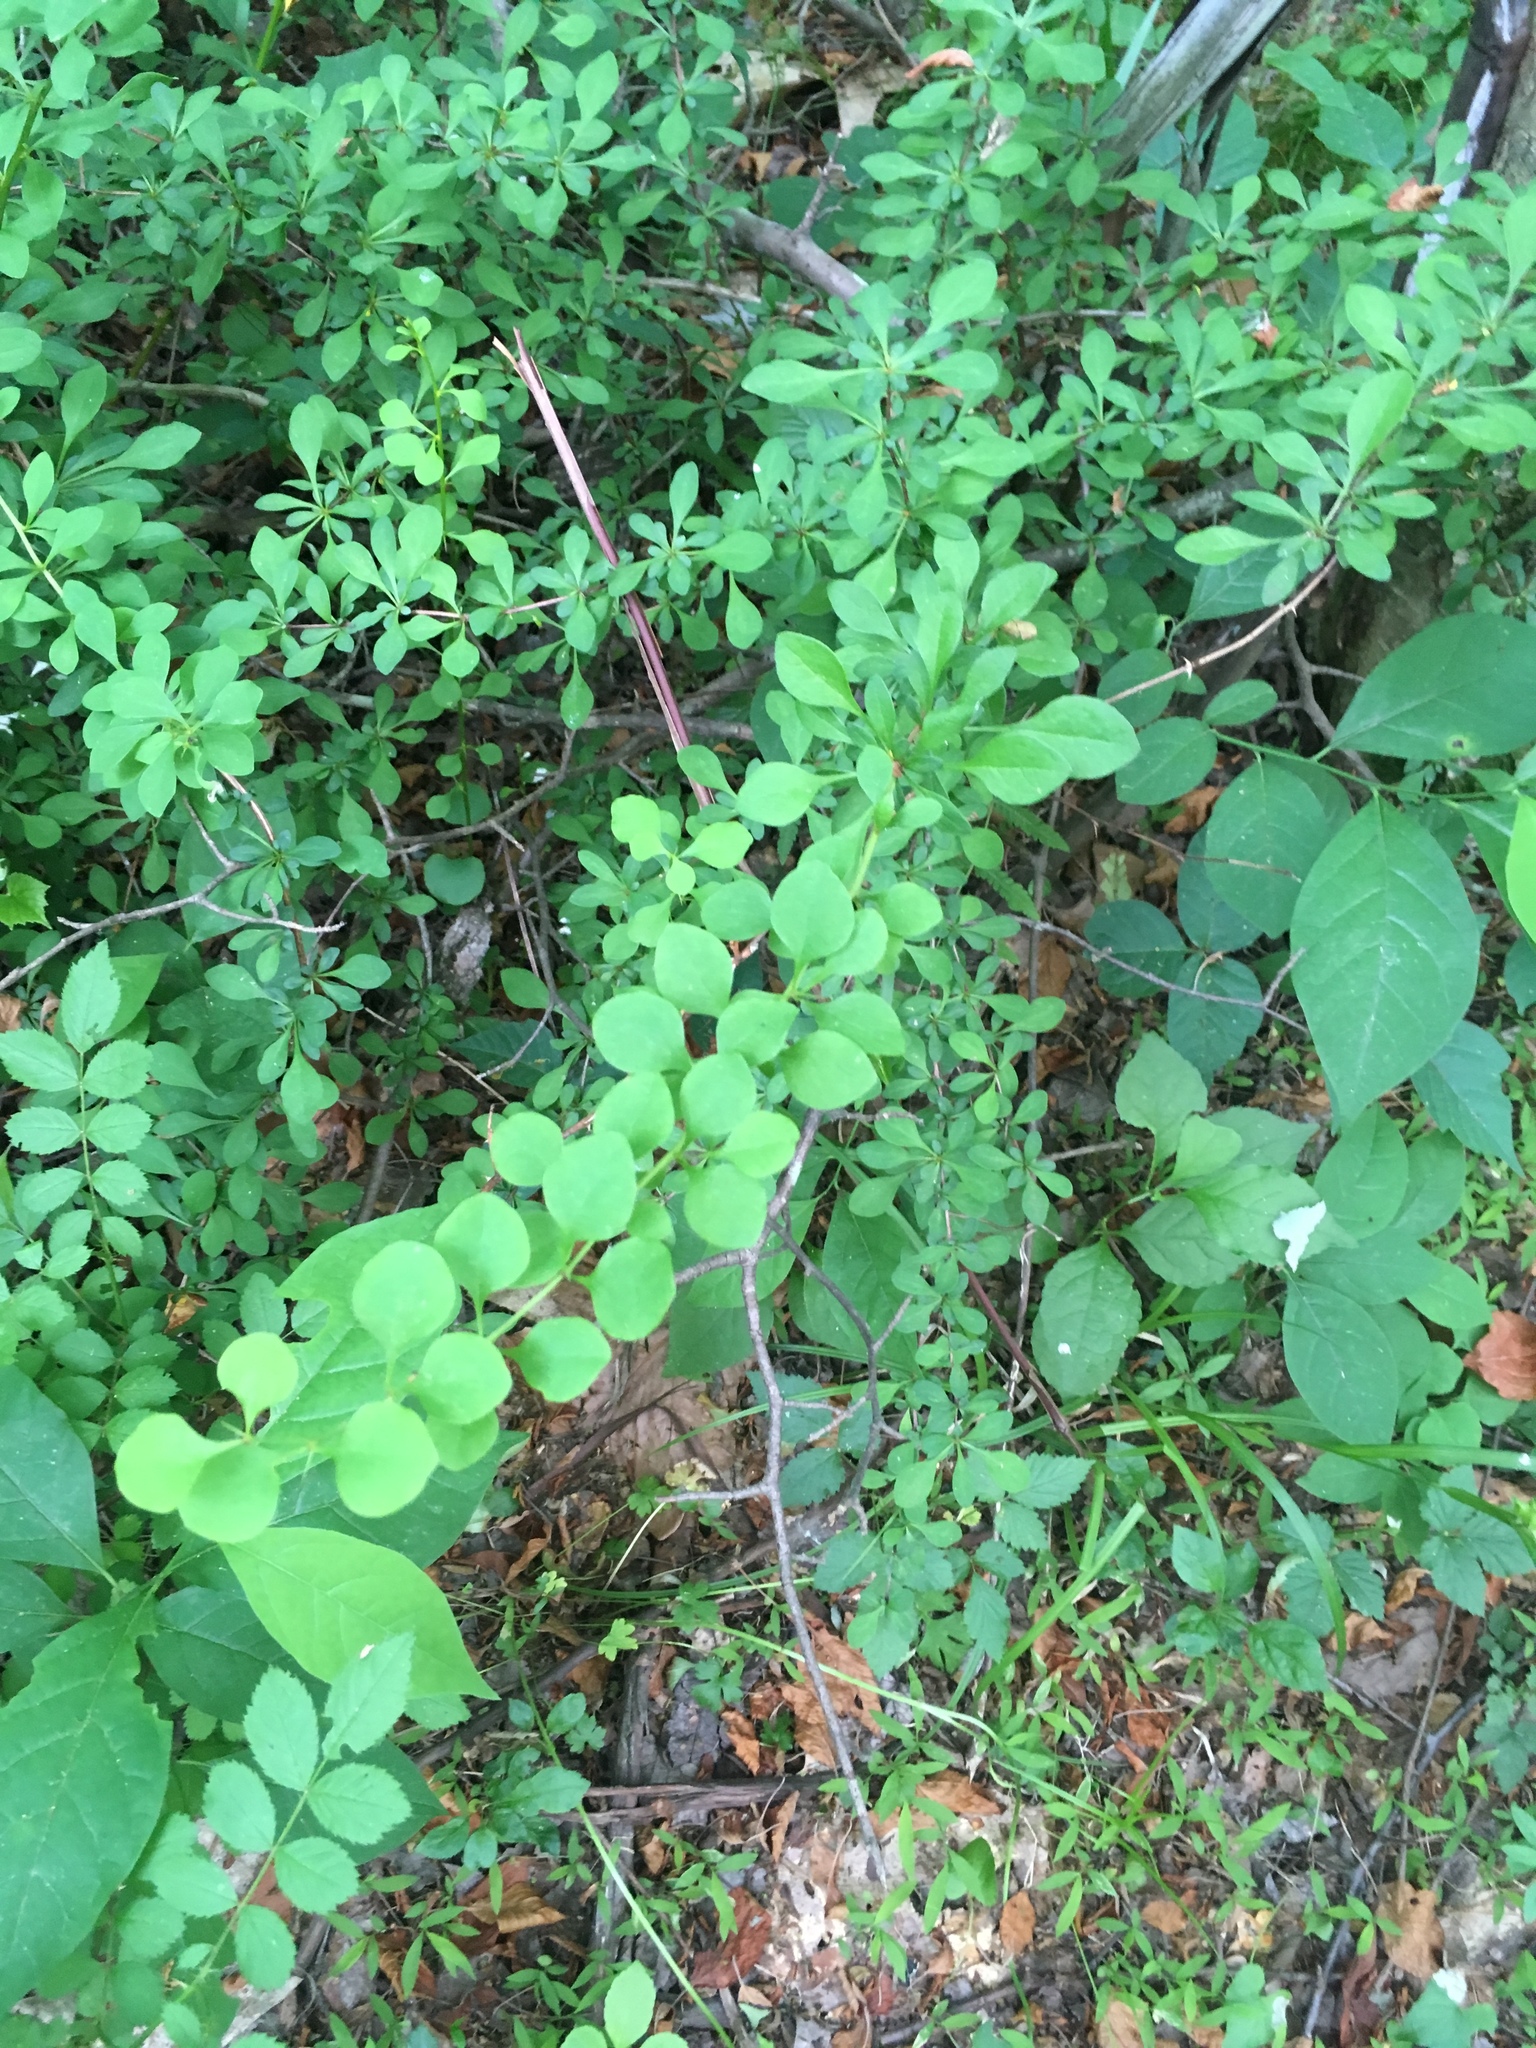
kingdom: Plantae
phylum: Tracheophyta
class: Magnoliopsida
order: Ranunculales
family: Berberidaceae
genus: Berberis
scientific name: Berberis thunbergii
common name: Japanese barberry
